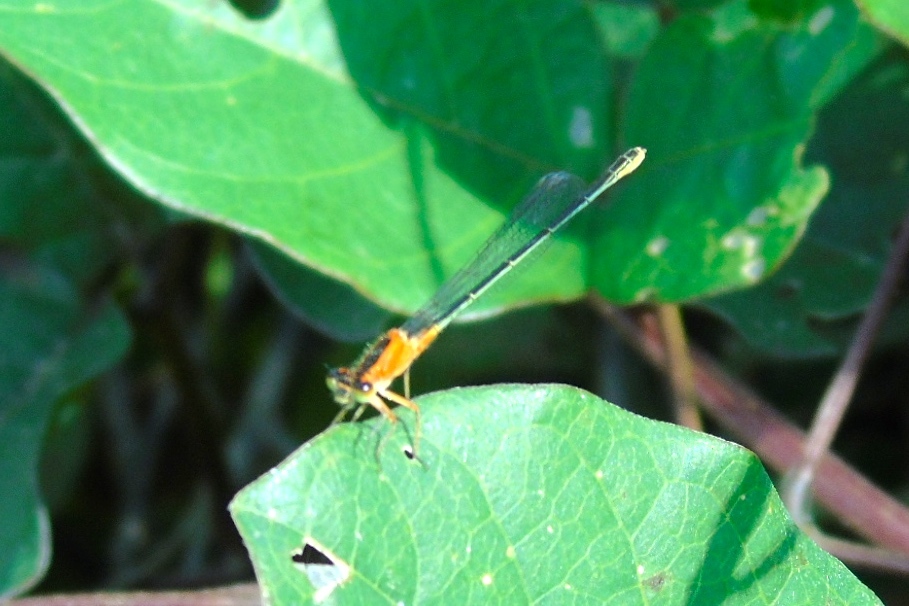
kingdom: Animalia
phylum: Arthropoda
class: Insecta
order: Odonata
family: Coenagrionidae
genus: Ischnura
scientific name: Ischnura ramburii
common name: Rambur's forktail
